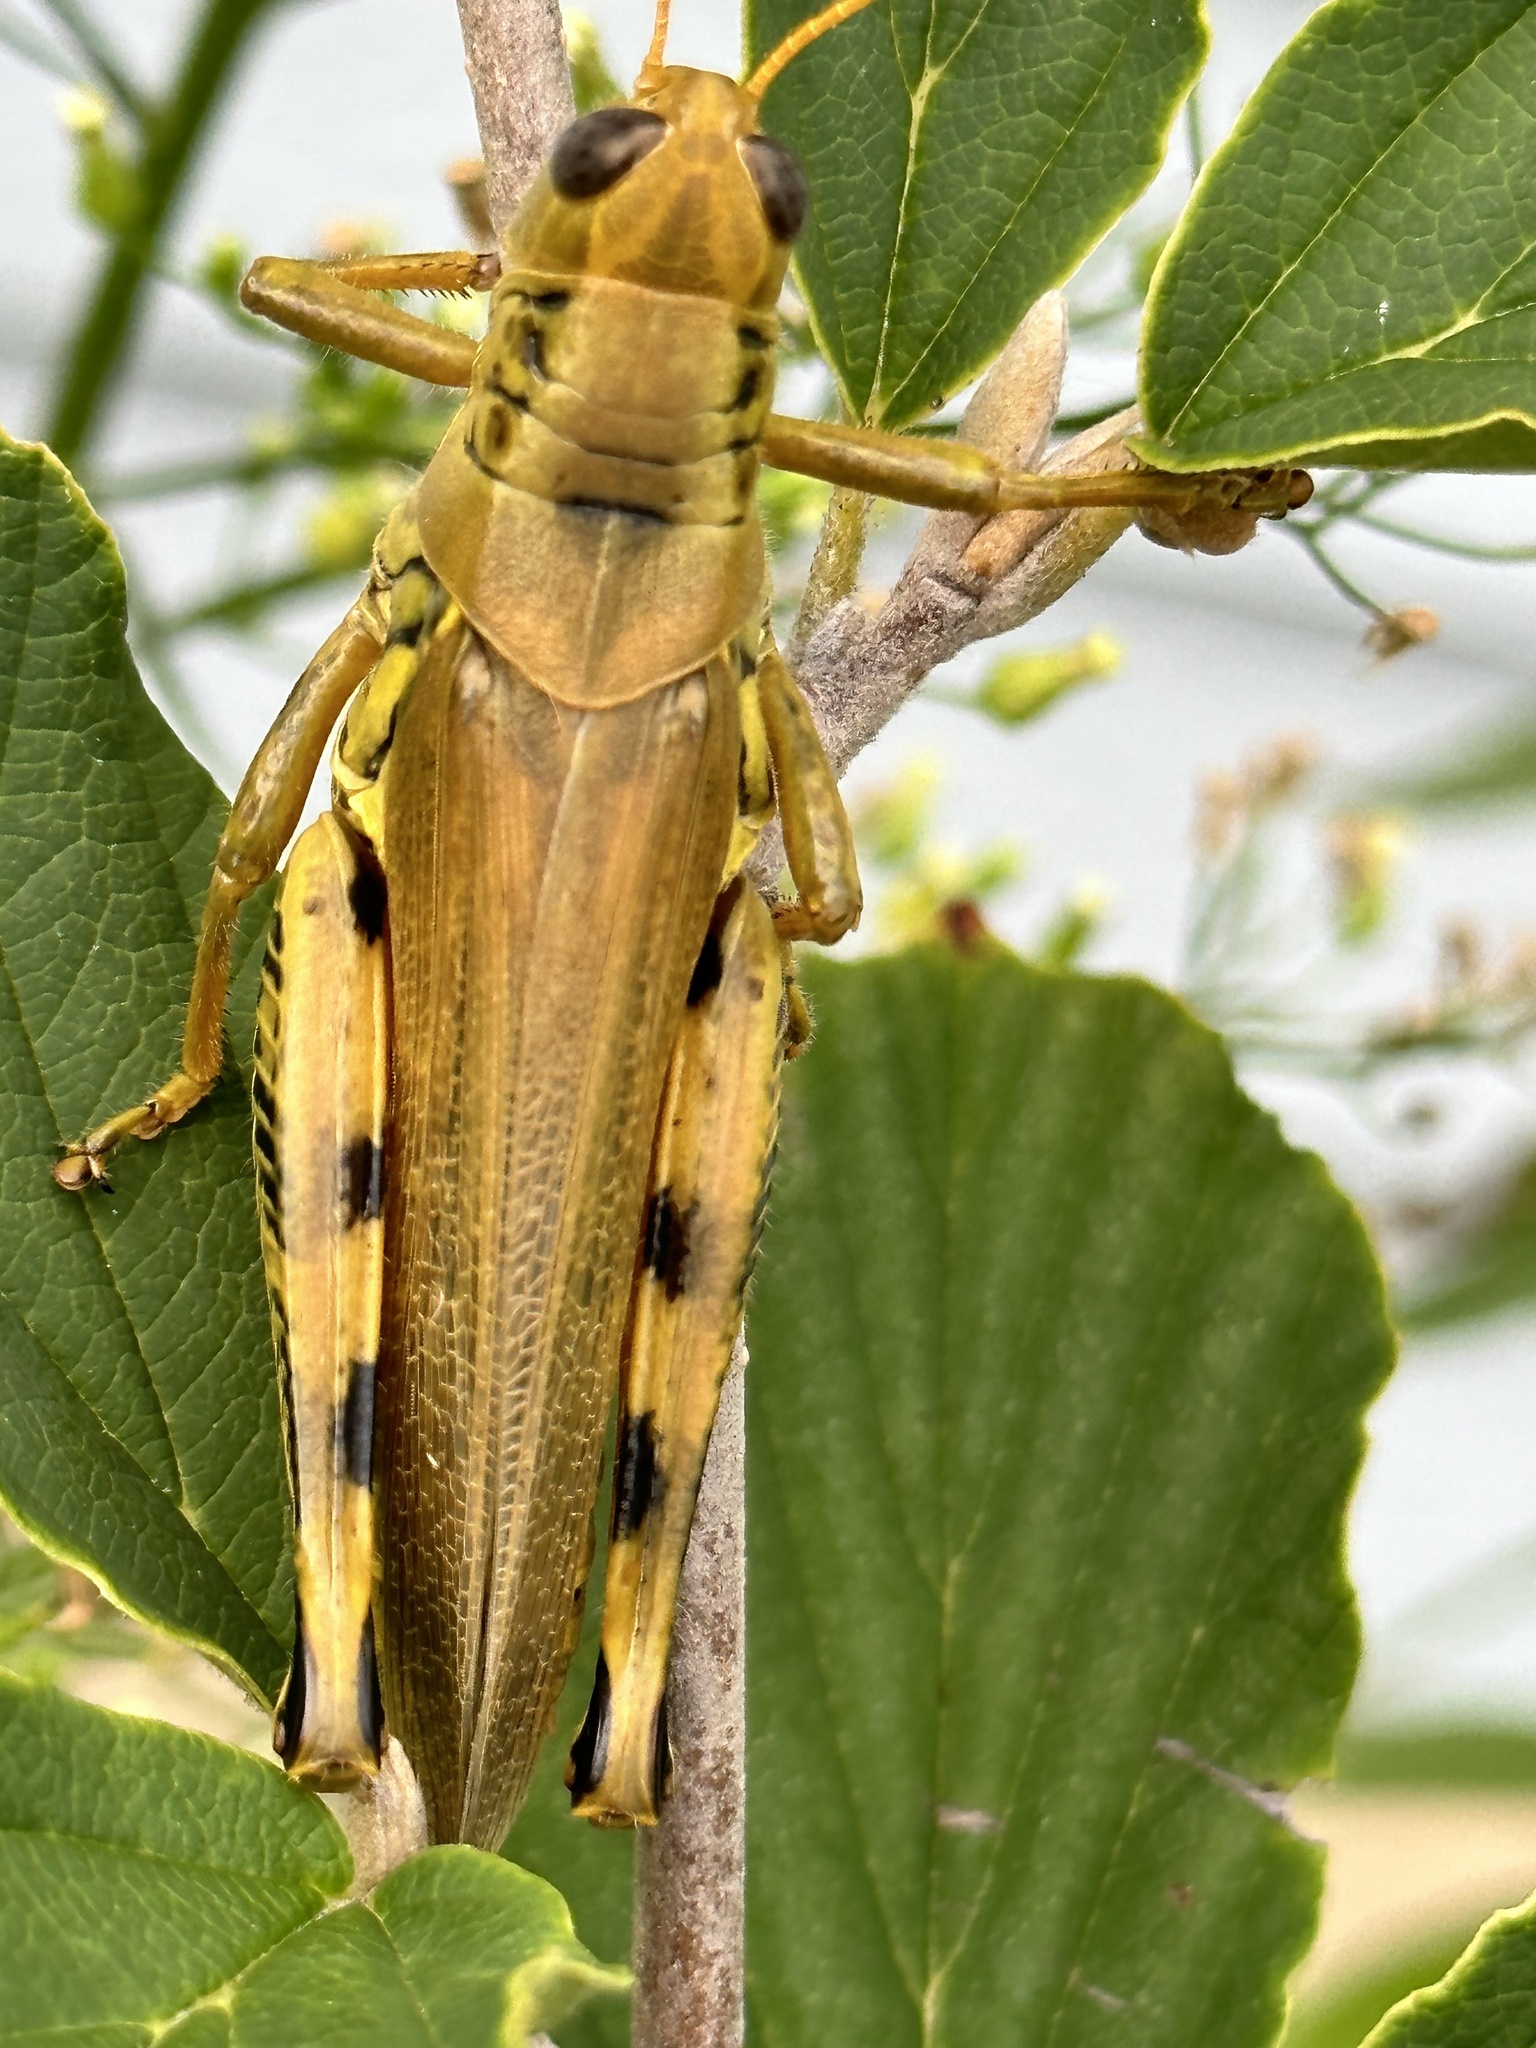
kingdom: Animalia
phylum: Arthropoda
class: Insecta
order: Orthoptera
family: Acrididae
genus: Melanoplus
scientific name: Melanoplus differentialis
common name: Differential grasshopper
